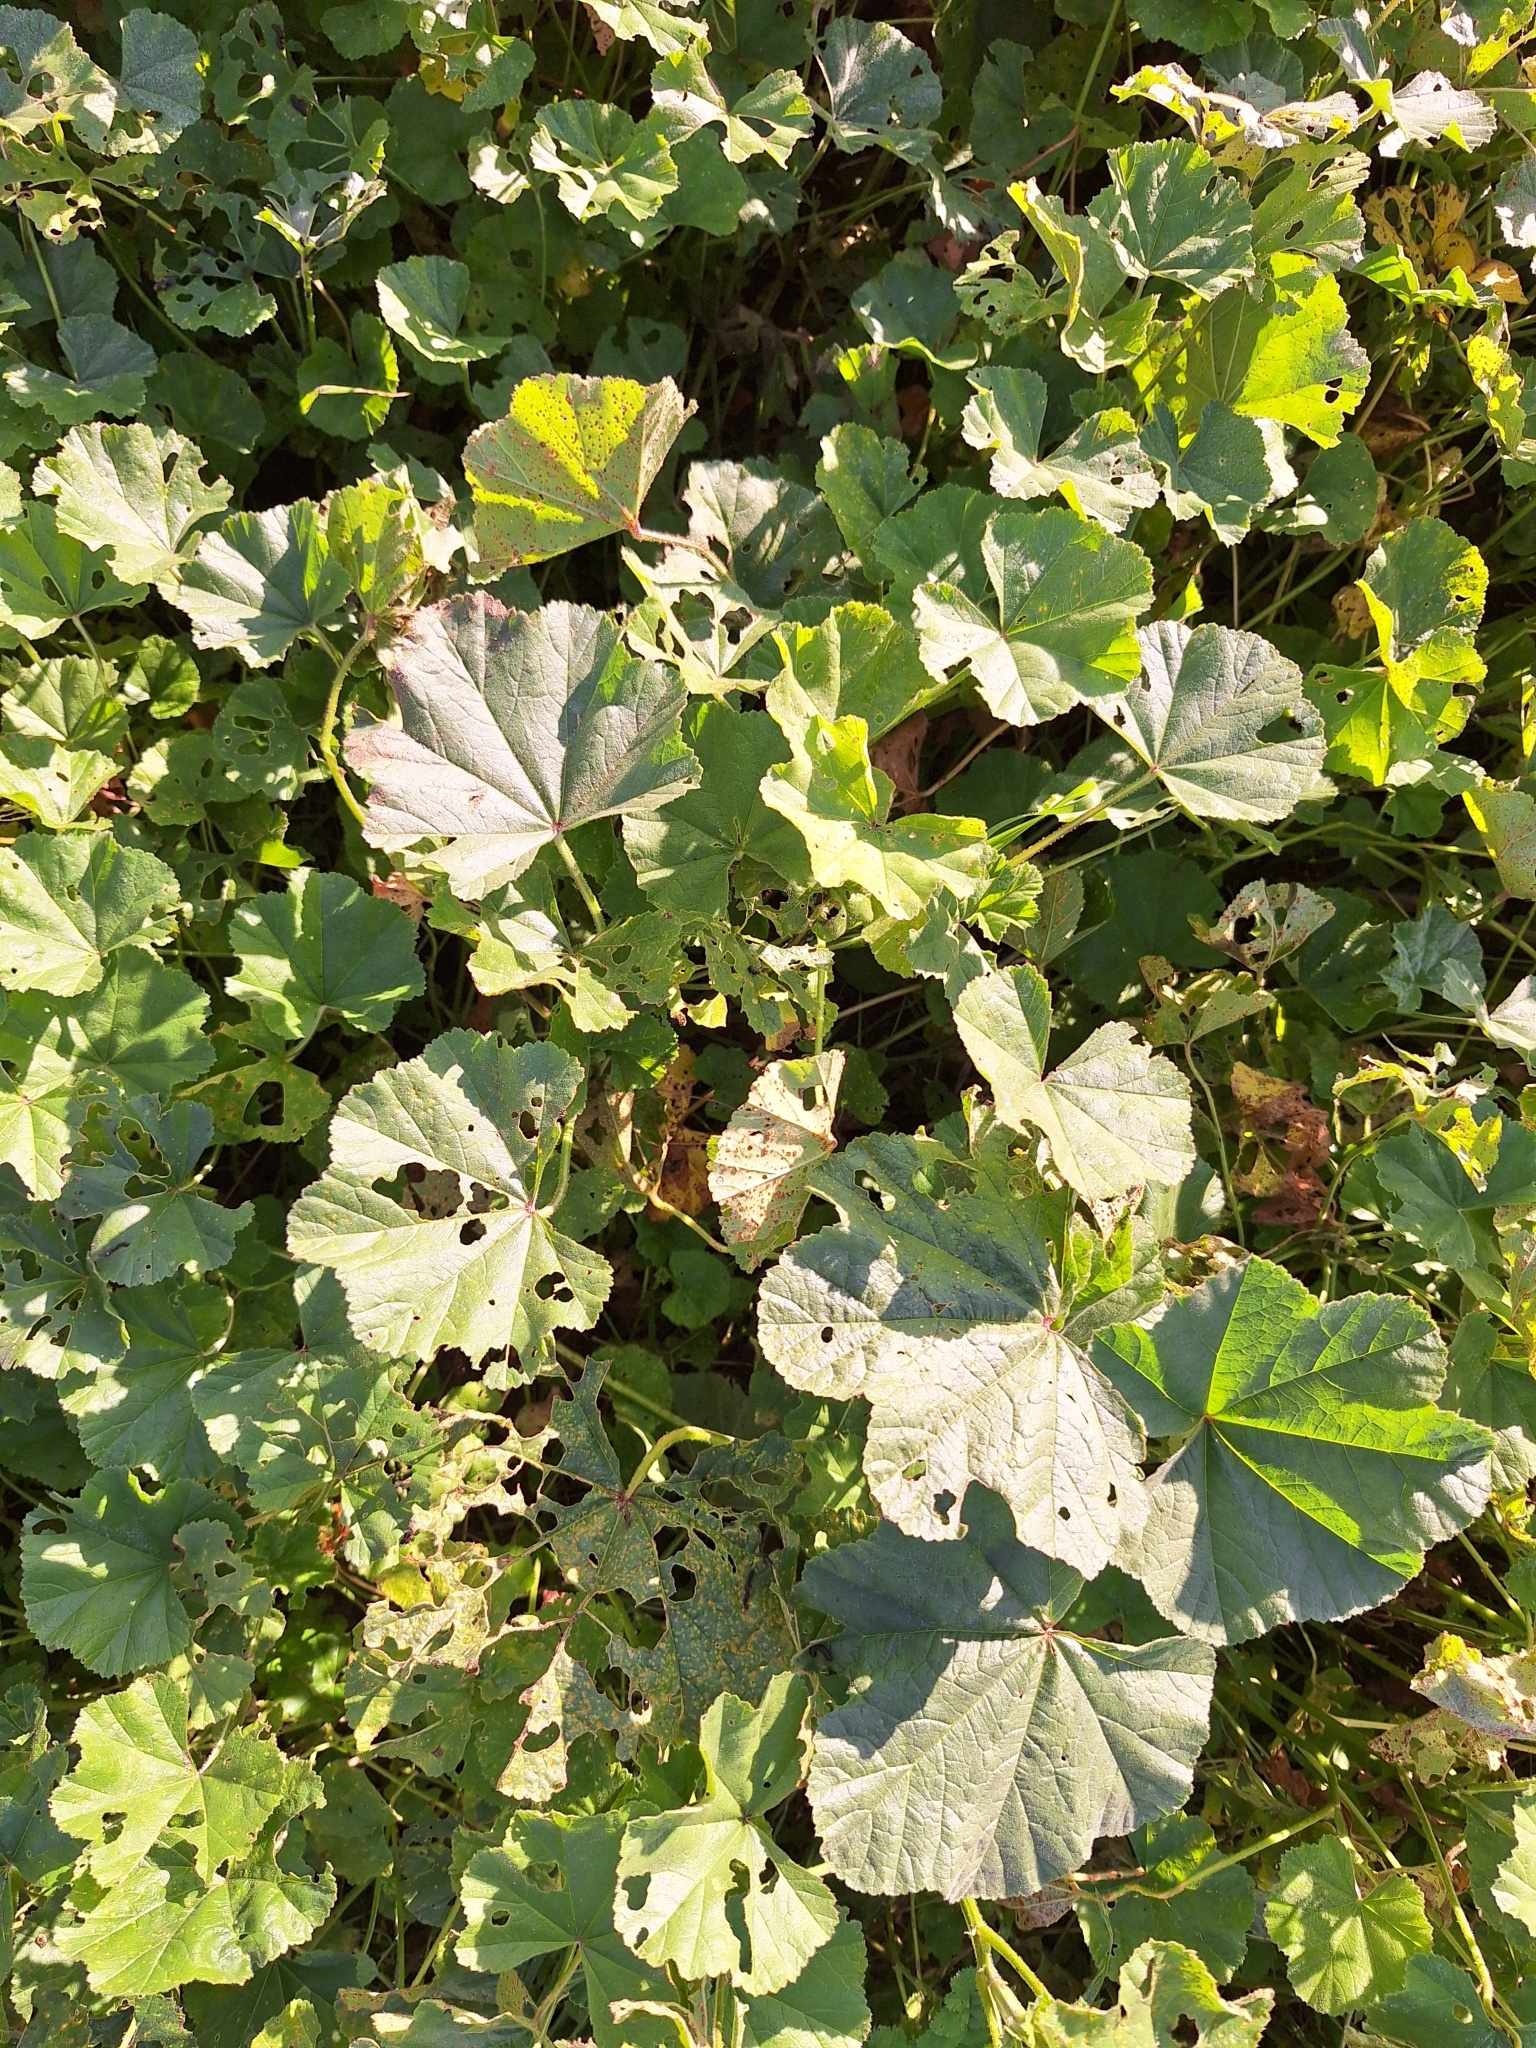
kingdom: Fungi
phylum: Basidiomycota
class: Pucciniomycetes
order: Pucciniales
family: Pucciniaceae
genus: Puccinia
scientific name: Puccinia malvacearum
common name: Hollyhock rust
